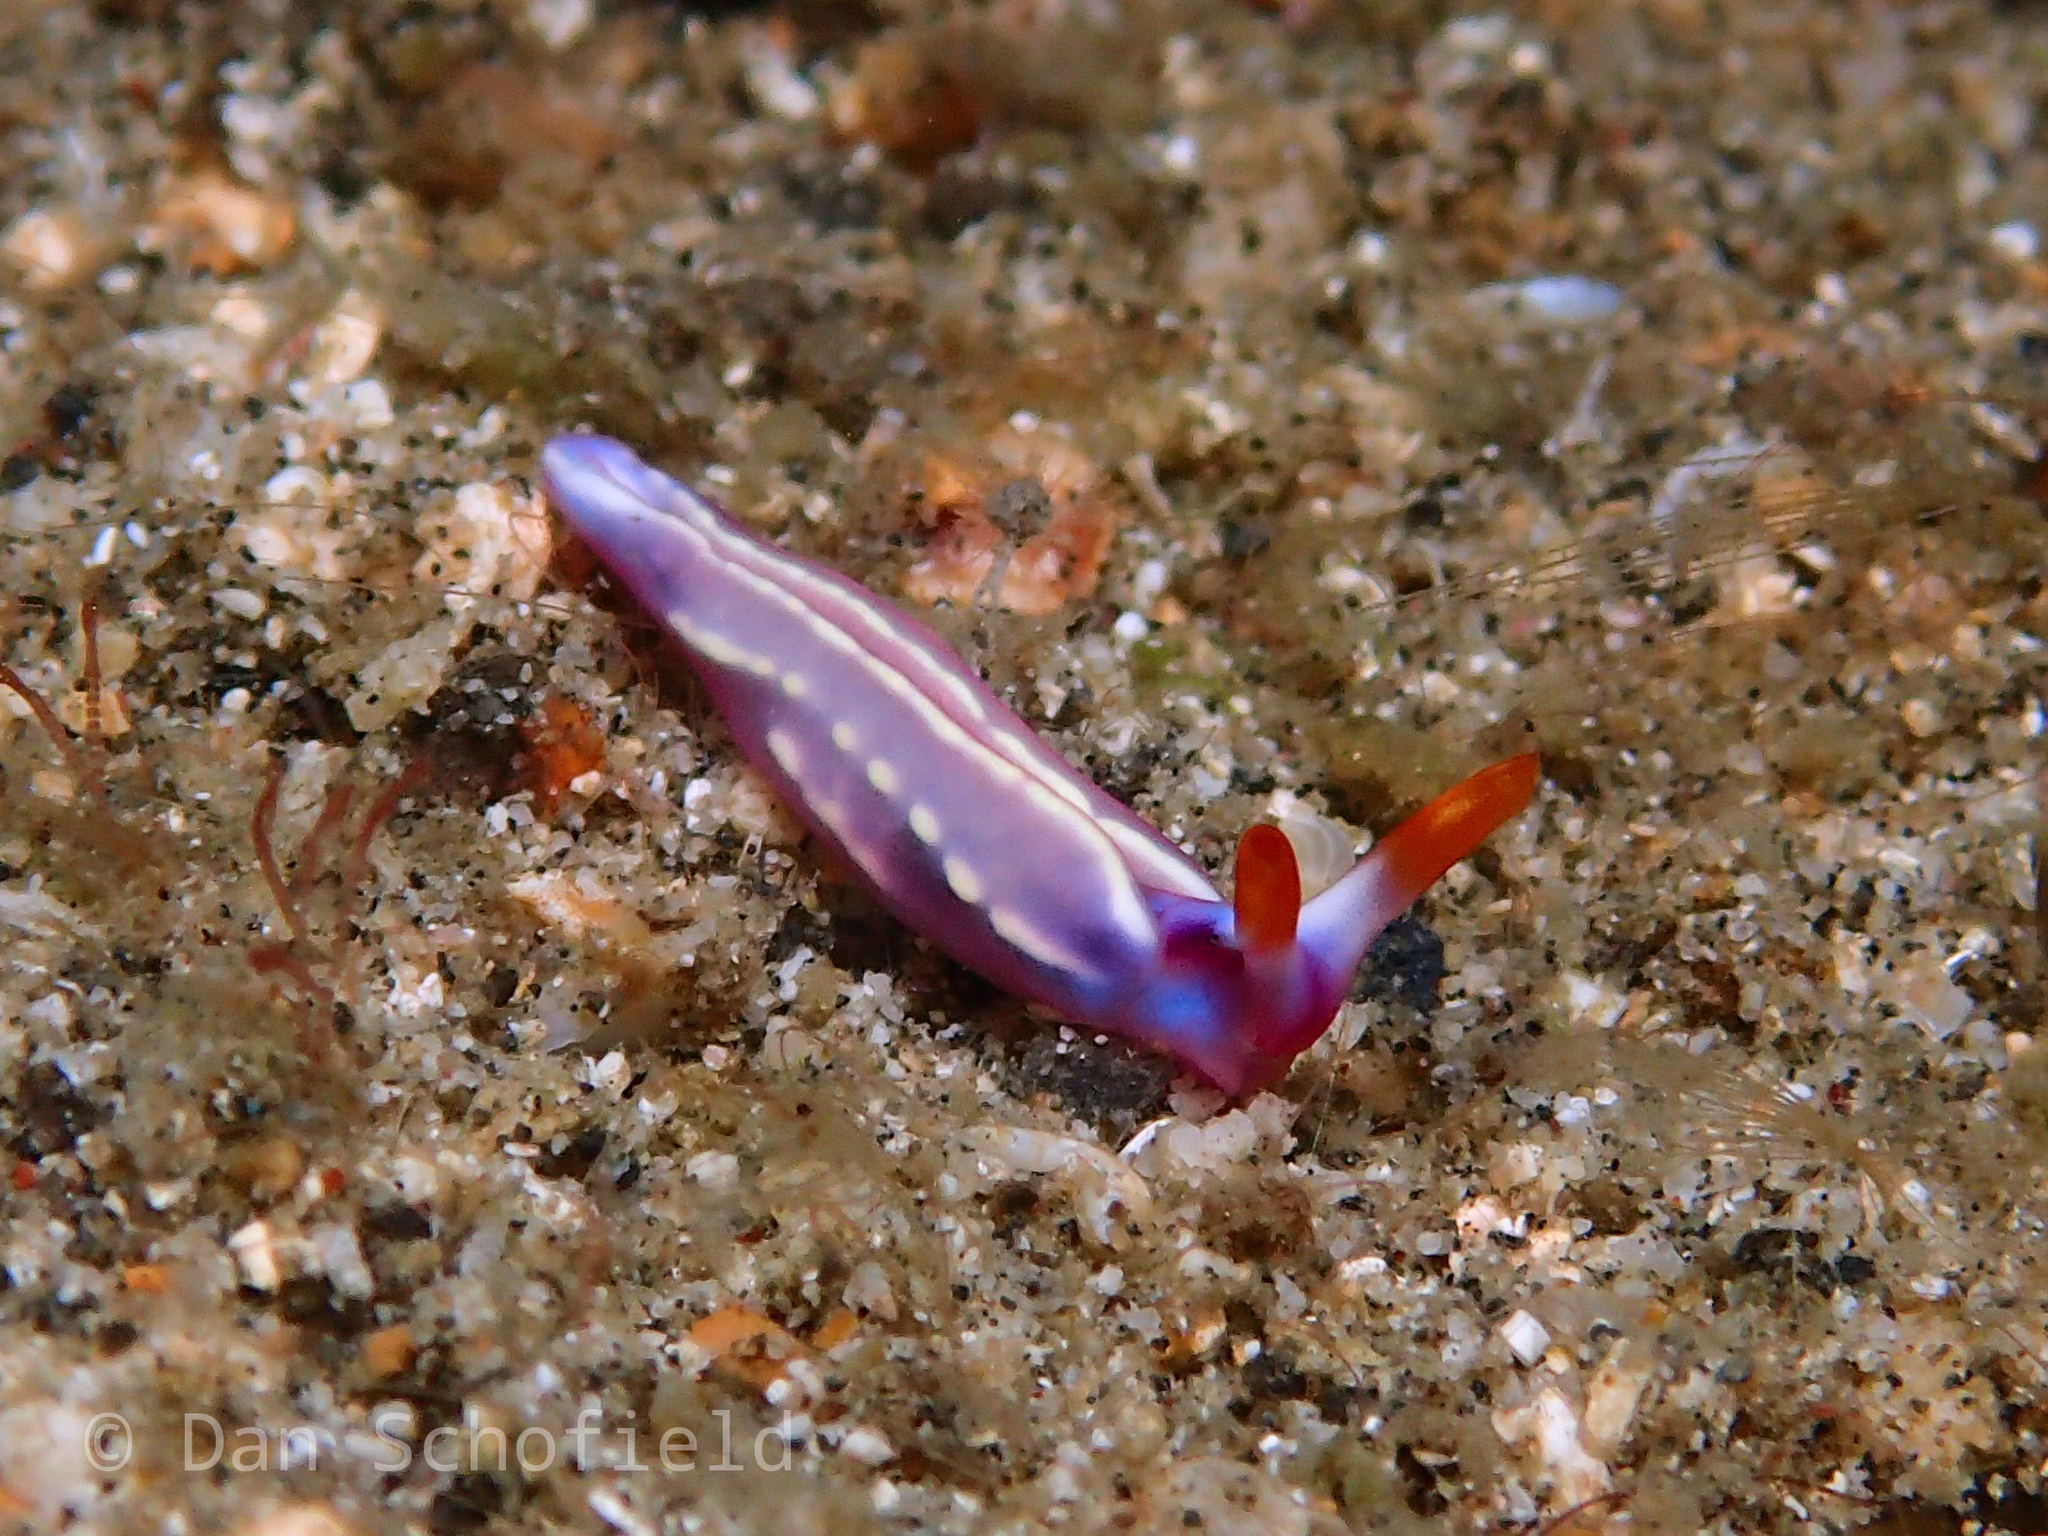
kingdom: Animalia
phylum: Mollusca
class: Gastropoda
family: Plakobranchidae
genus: Thuridilla
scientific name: Thuridilla albopustulosa
